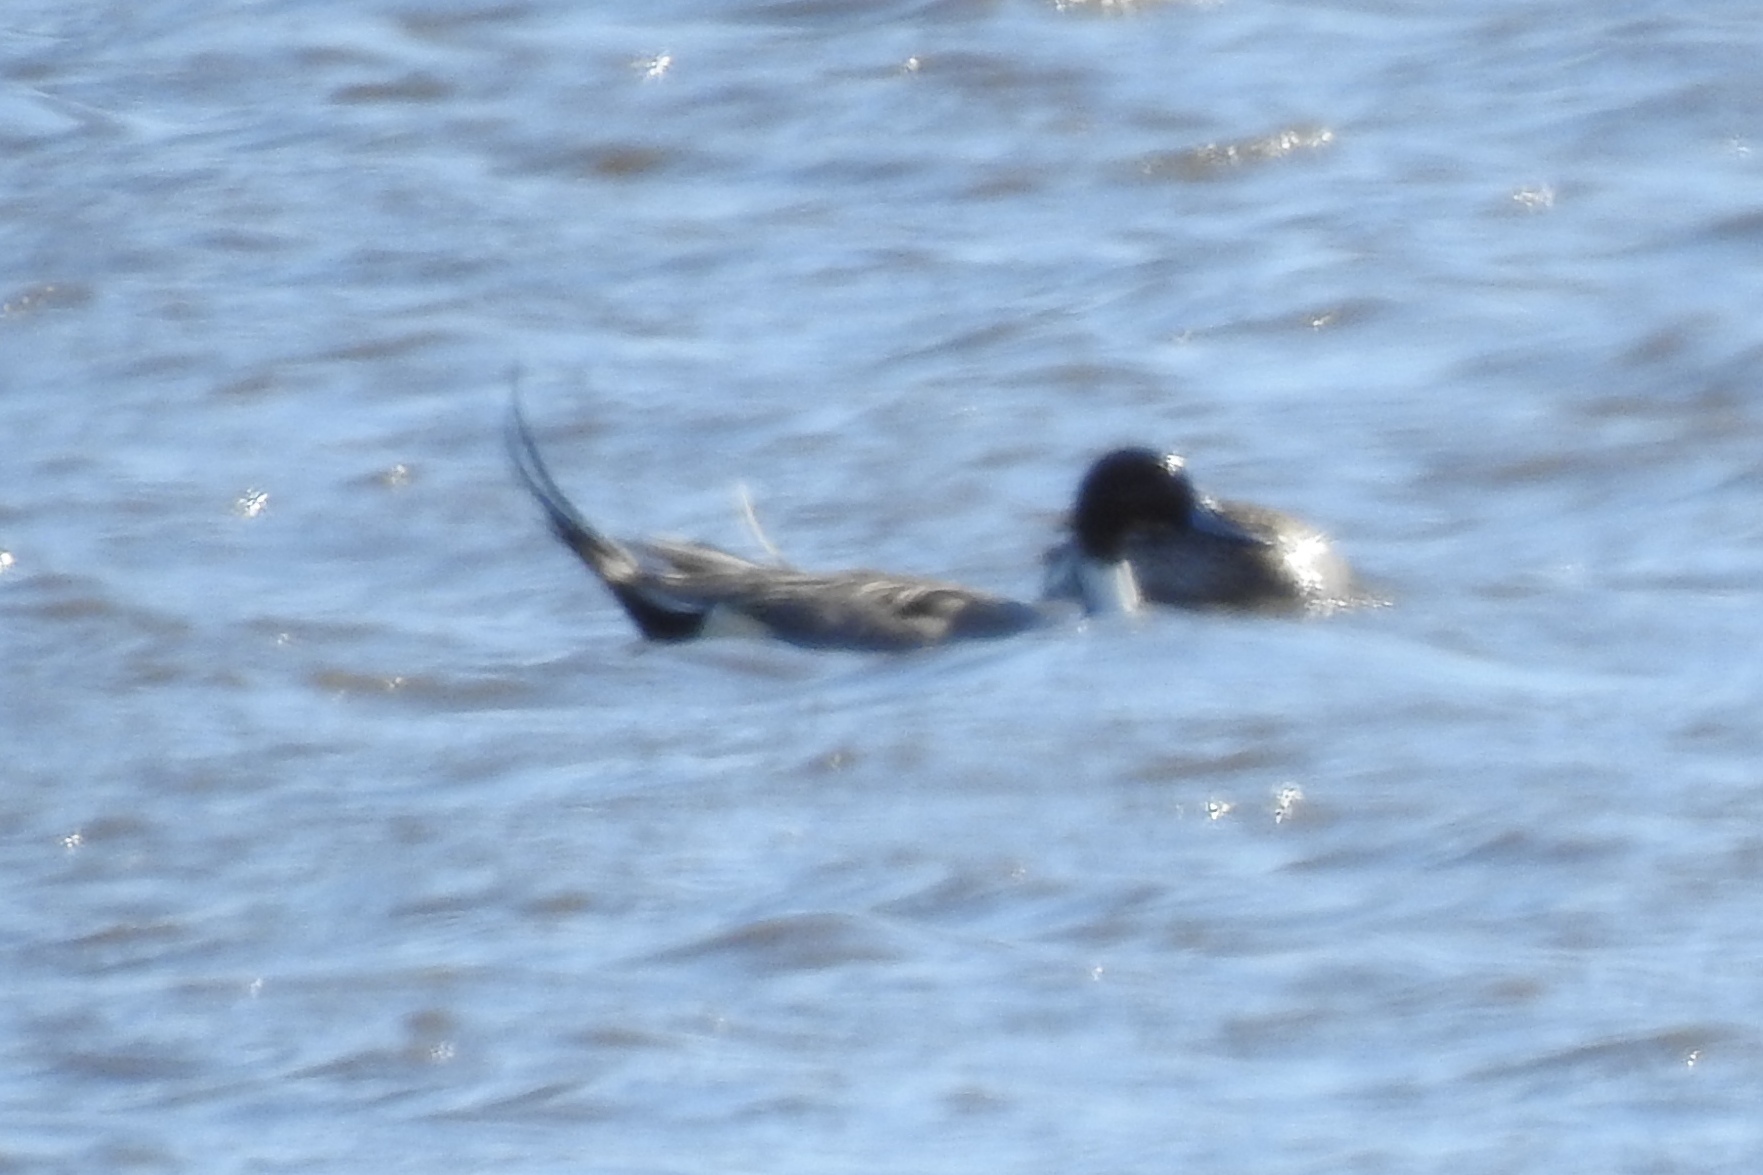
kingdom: Animalia
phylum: Chordata
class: Aves
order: Anseriformes
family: Anatidae
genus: Anas
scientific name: Anas acuta
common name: Northern pintail
